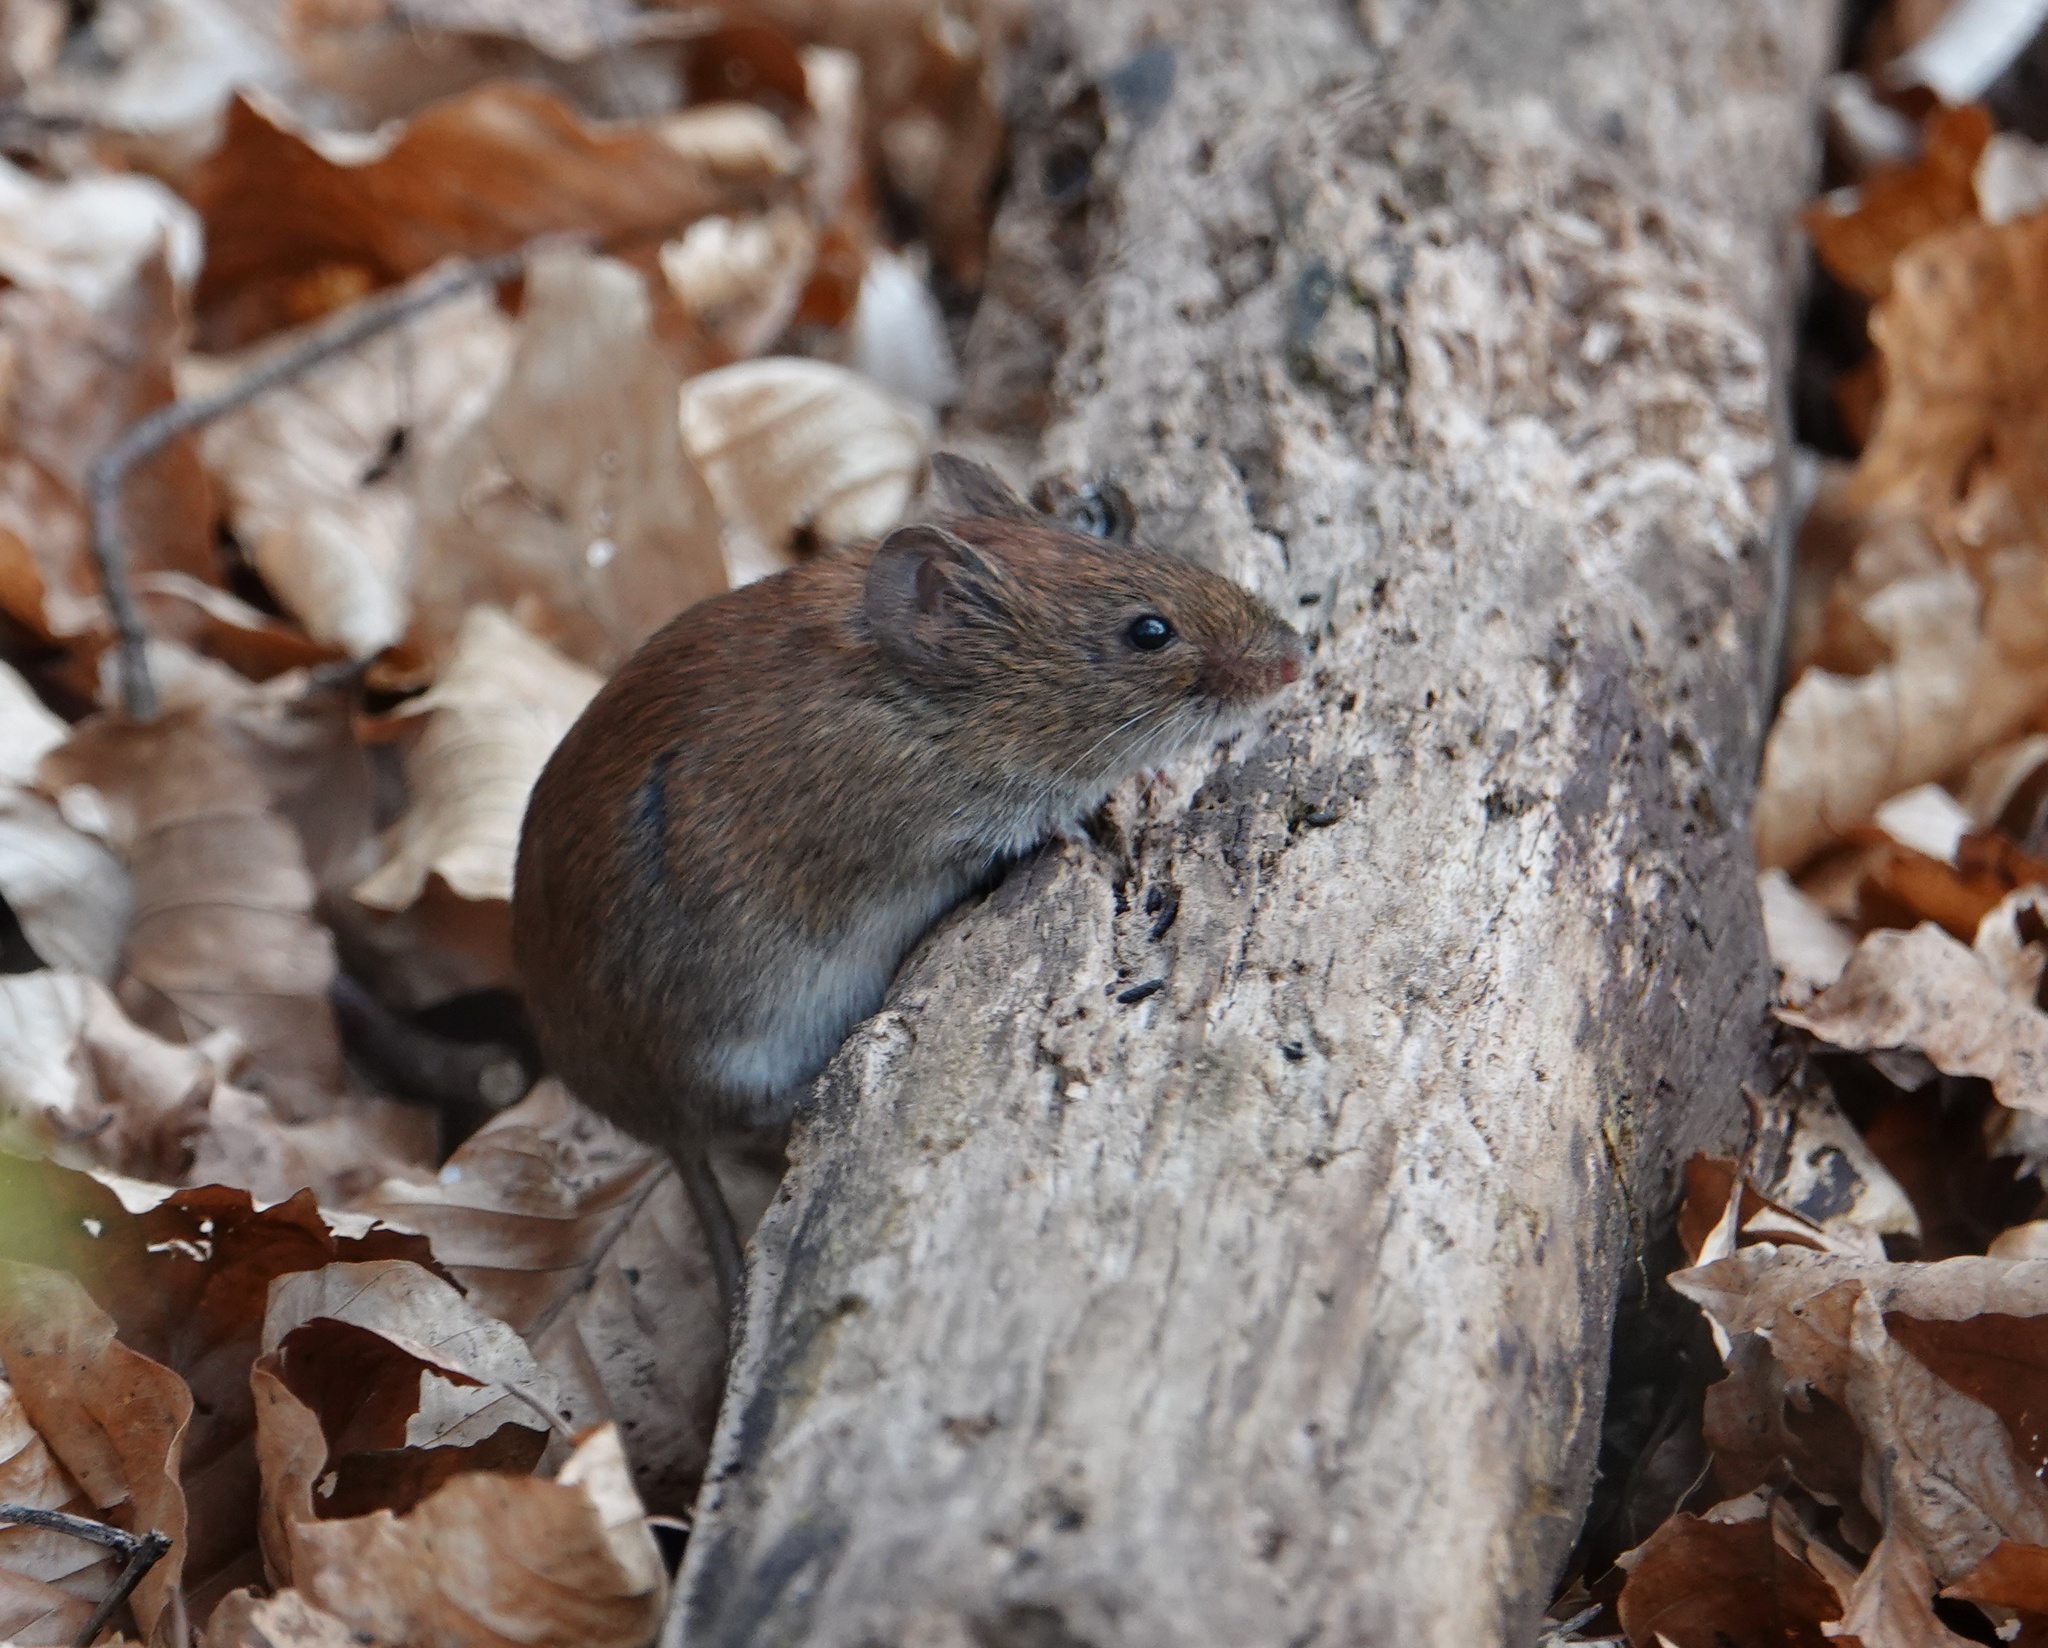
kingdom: Animalia
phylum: Chordata
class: Mammalia
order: Rodentia
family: Cricetidae
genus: Myodes
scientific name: Myodes glareolus
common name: Bank vole
